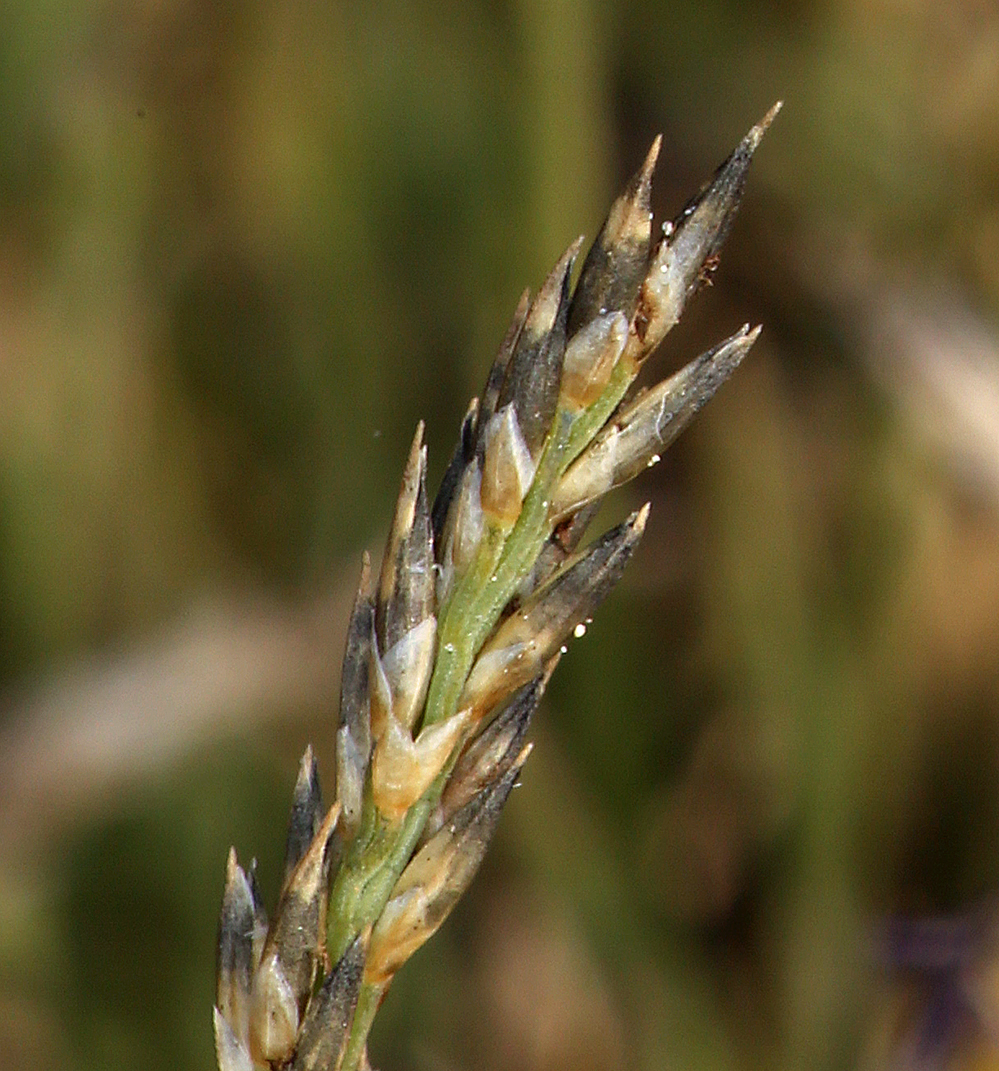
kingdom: Plantae
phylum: Tracheophyta
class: Liliopsida
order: Poales
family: Poaceae
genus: Muhlenbergia
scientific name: Muhlenbergia richardsonis
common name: Mat muhly
